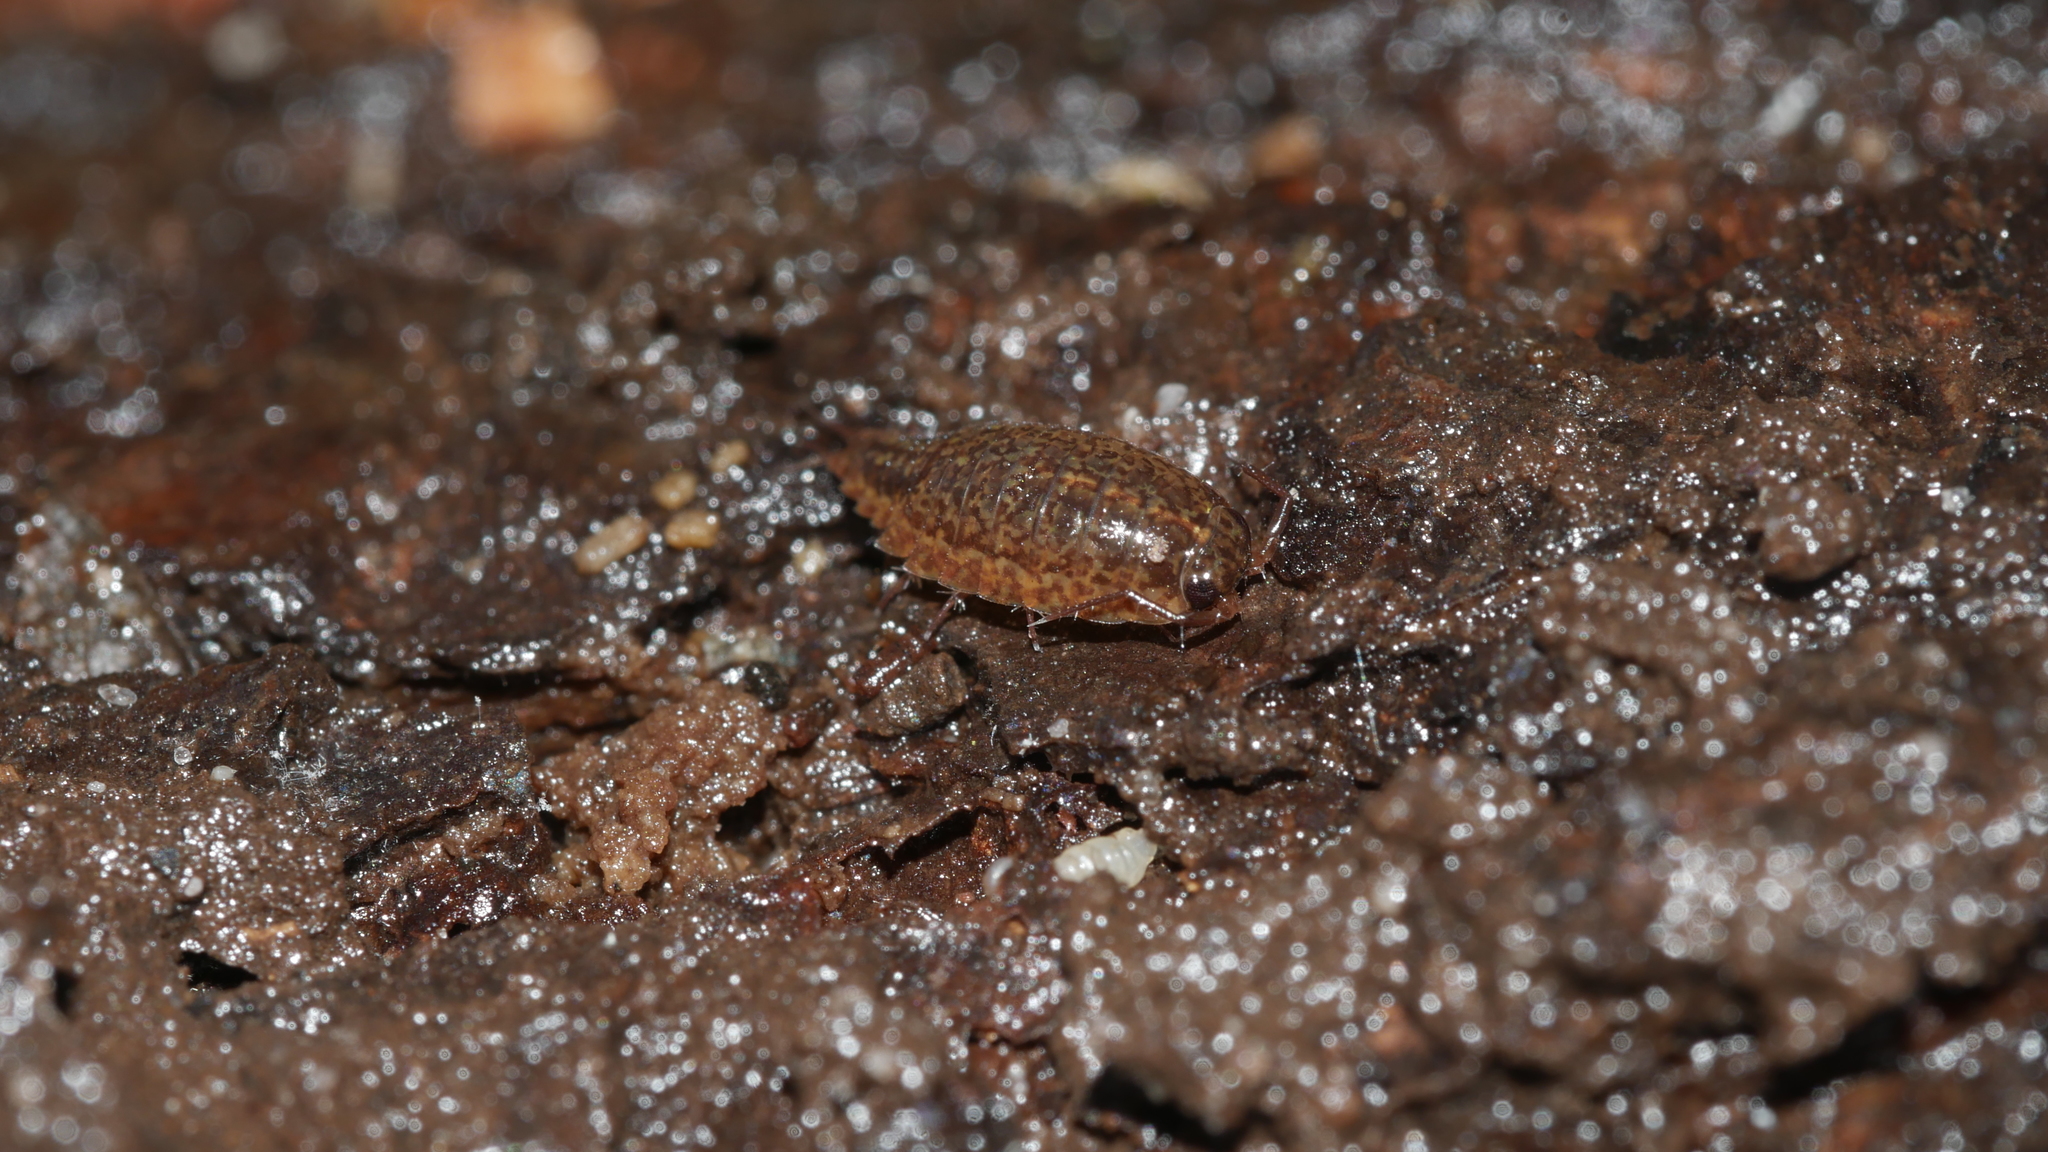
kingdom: Animalia
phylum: Arthropoda
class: Malacostraca
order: Isopoda
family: Ligiidae
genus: Ligidium
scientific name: Ligidium elrodii
